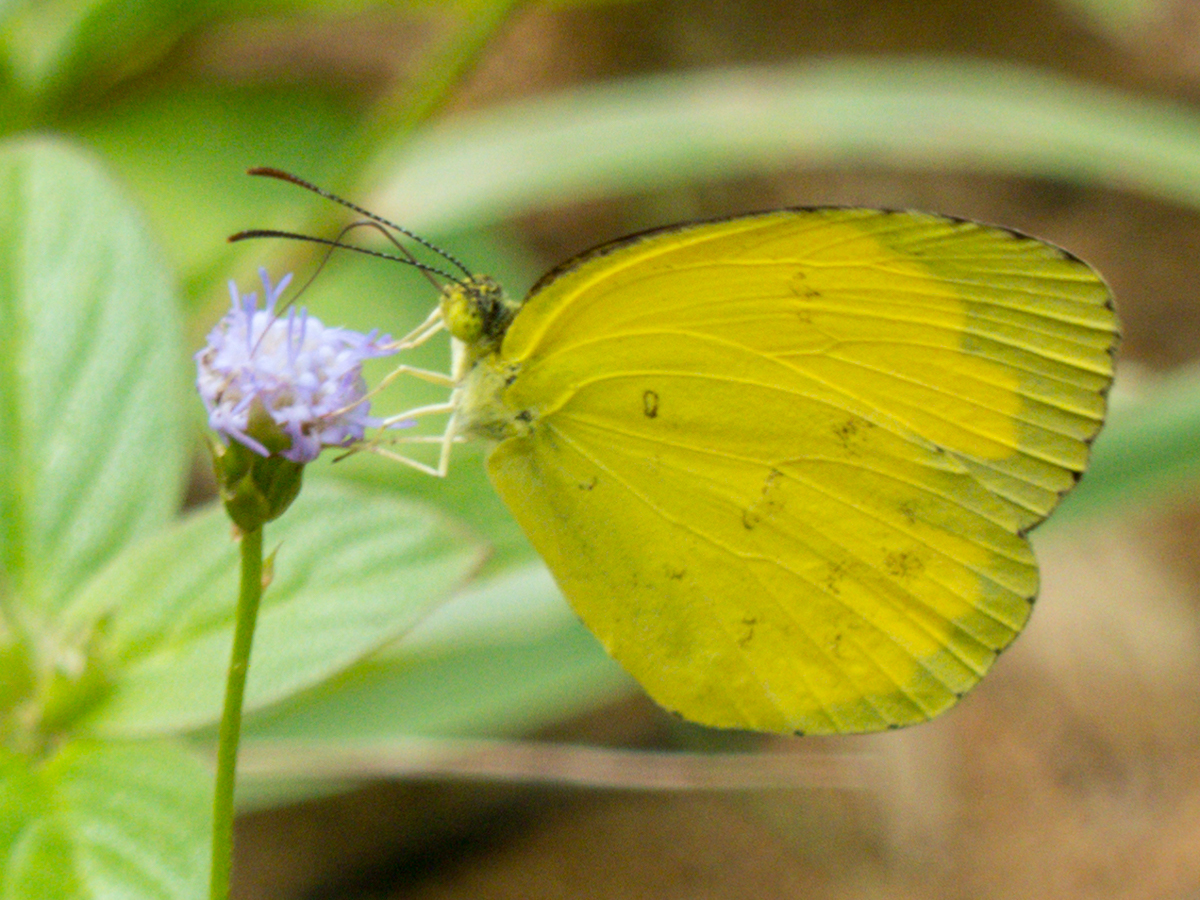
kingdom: Animalia
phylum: Arthropoda
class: Insecta
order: Lepidoptera
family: Pieridae
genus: Eurema
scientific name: Eurema hecabe
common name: Pale grass yellow
